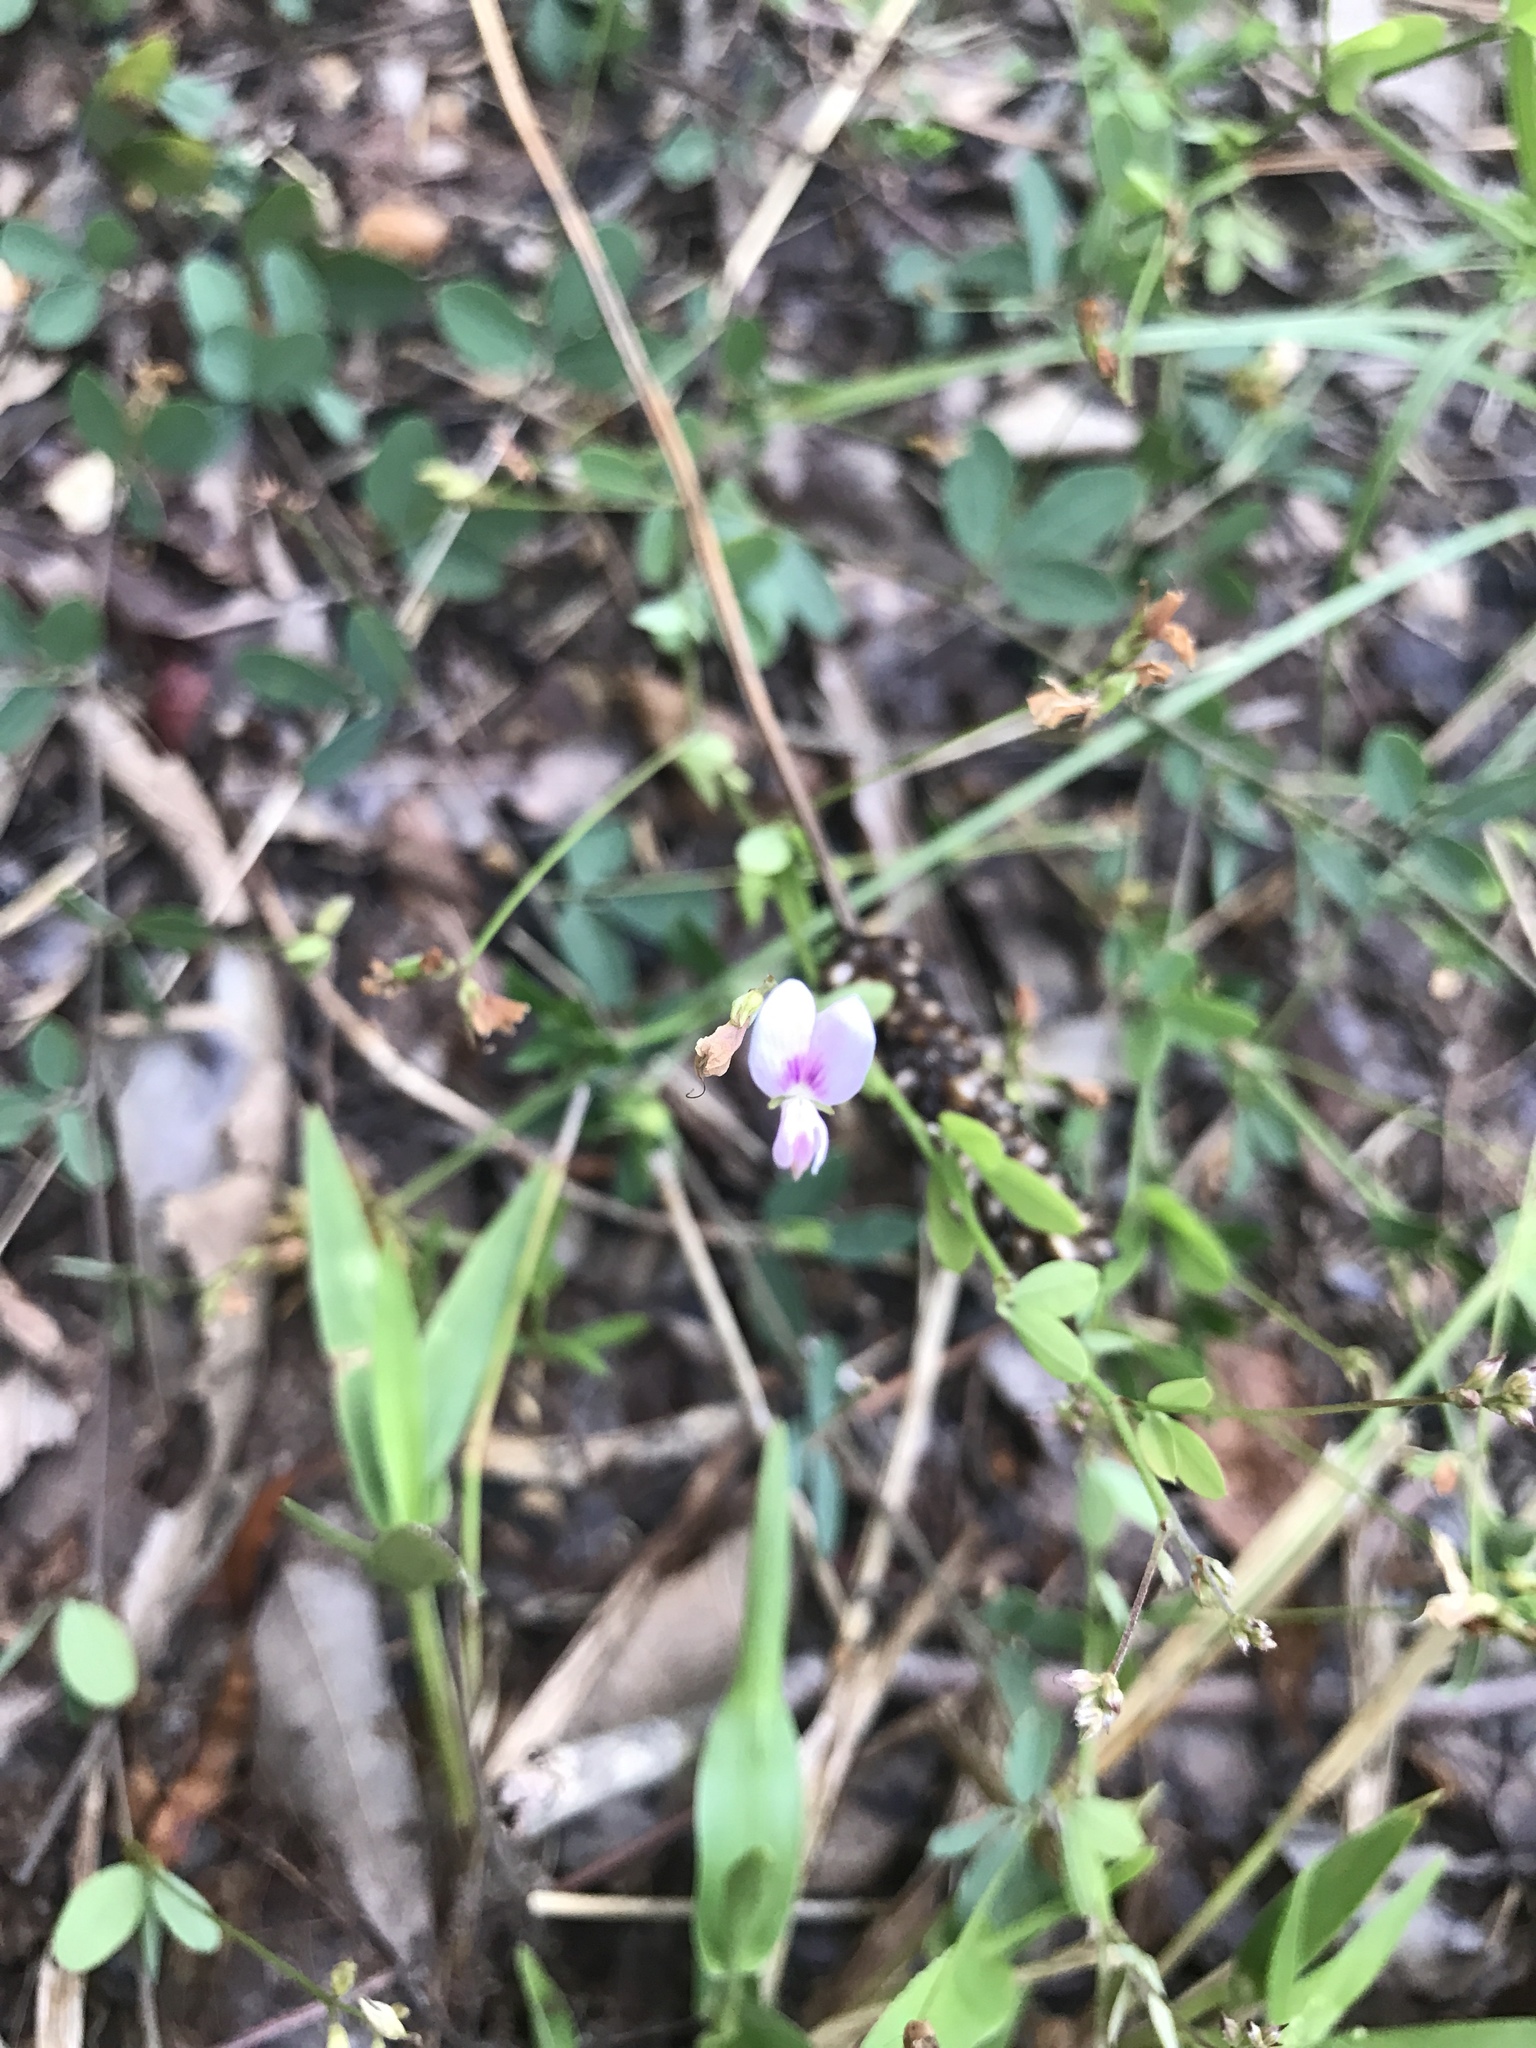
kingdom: Plantae
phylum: Tracheophyta
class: Magnoliopsida
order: Fabales
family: Fabaceae
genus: Lespedeza
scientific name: Lespedeza repens
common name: Creeping bush-clover
